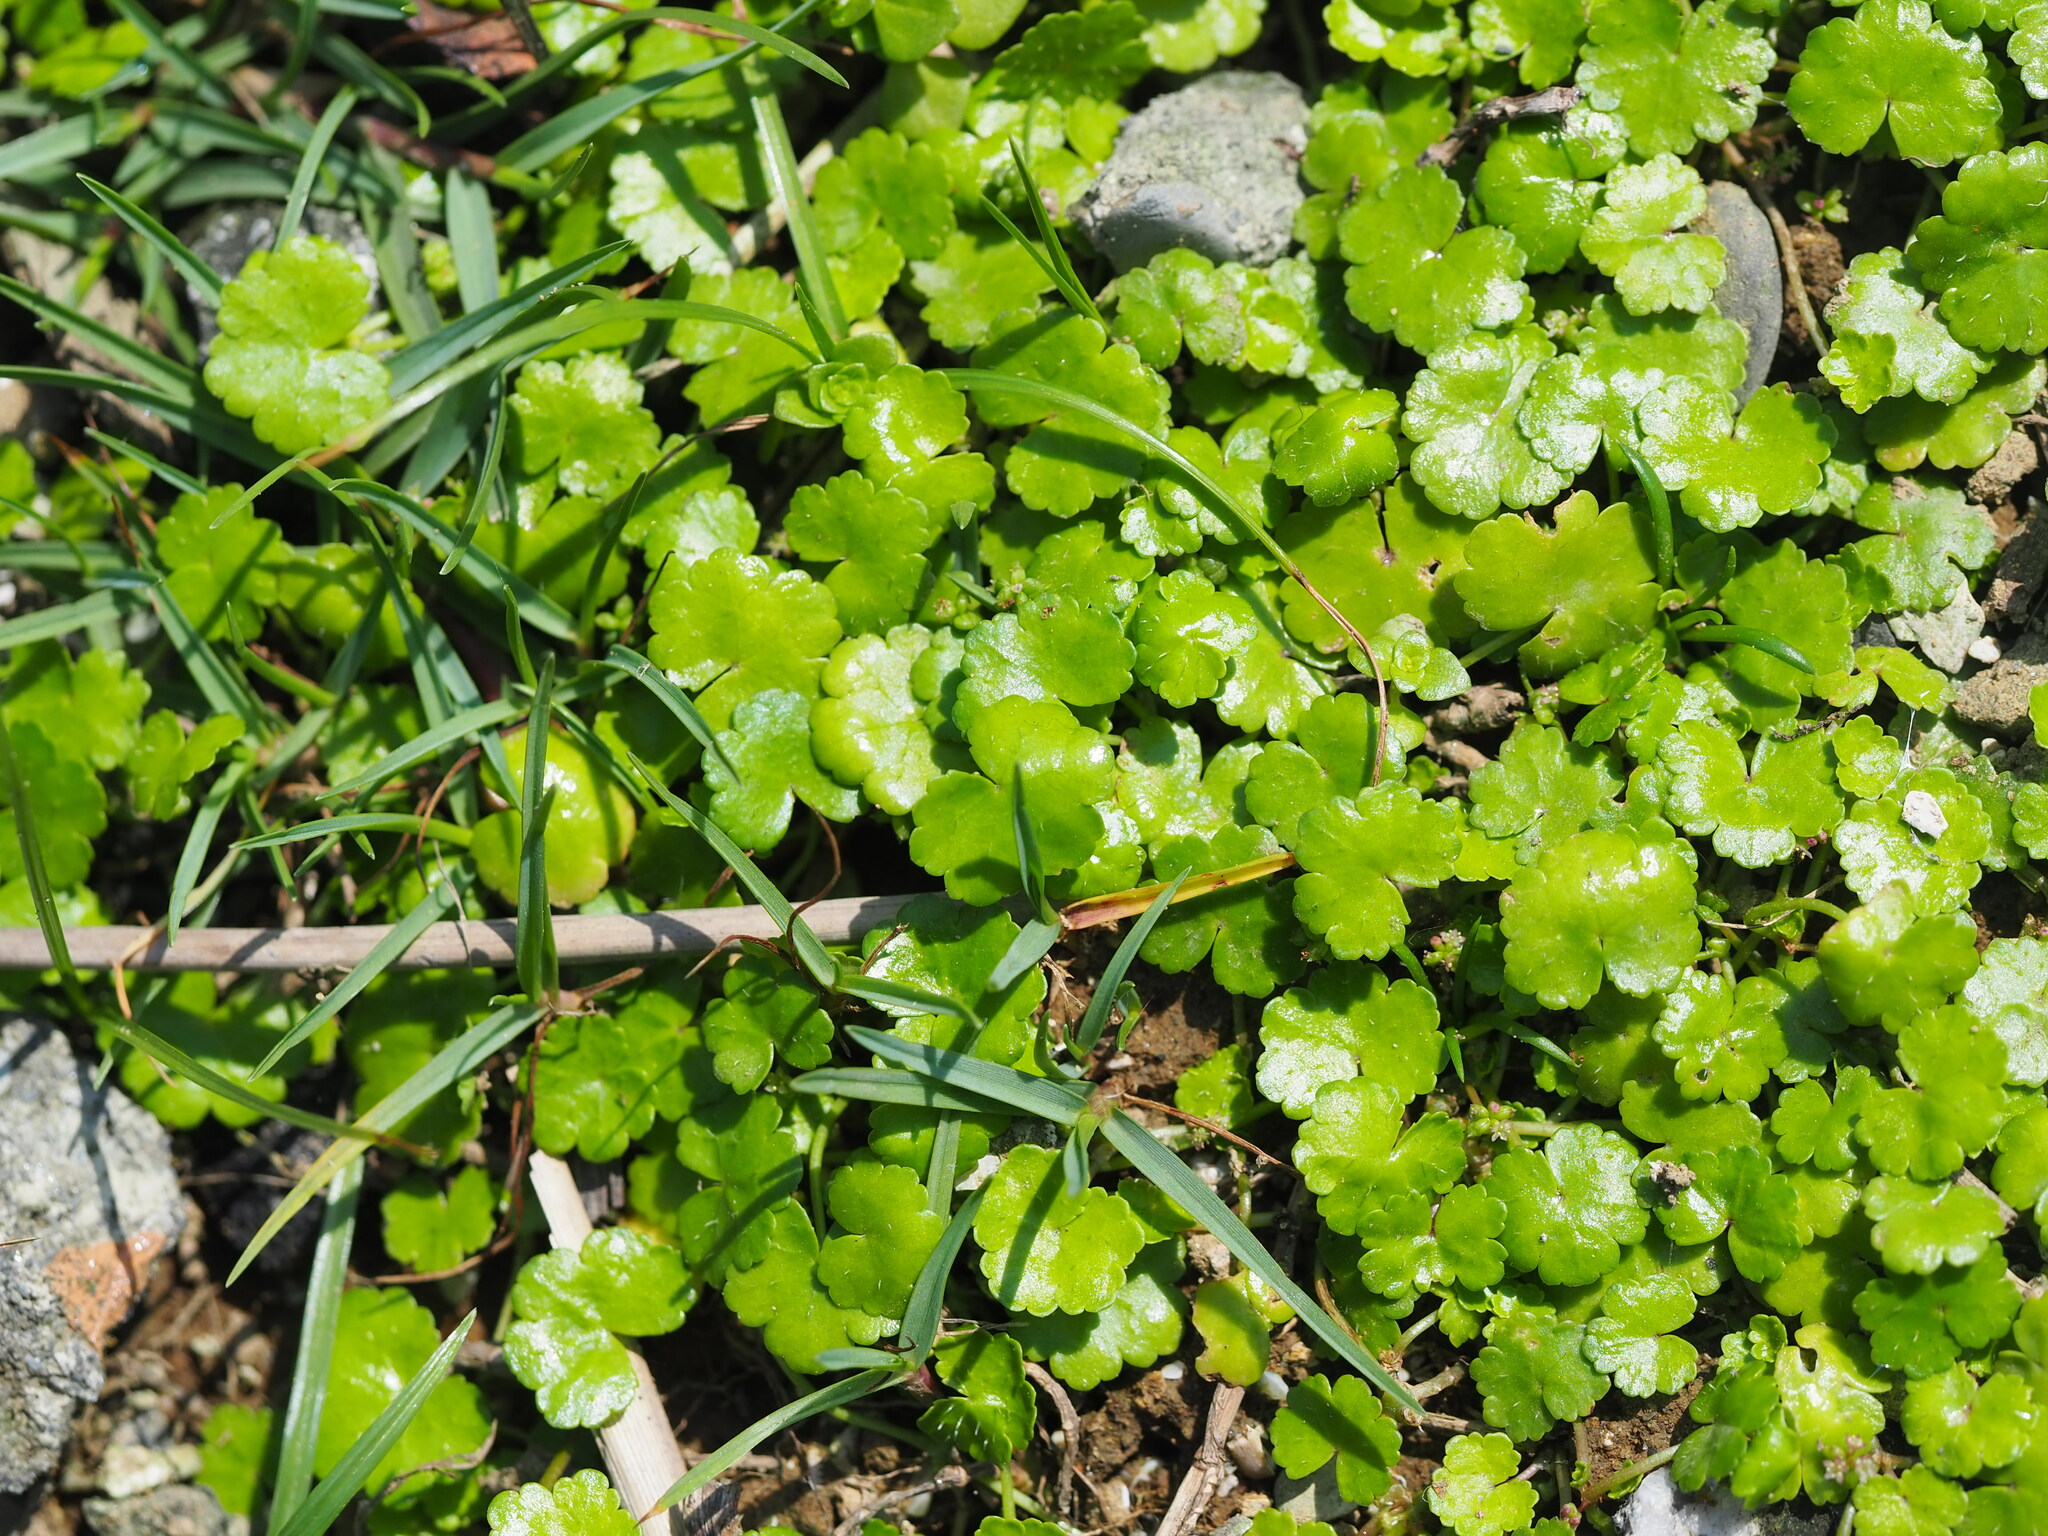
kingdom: Plantae
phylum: Tracheophyta
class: Magnoliopsida
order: Apiales
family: Araliaceae
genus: Hydrocotyle
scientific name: Hydrocotyle tuberifera
